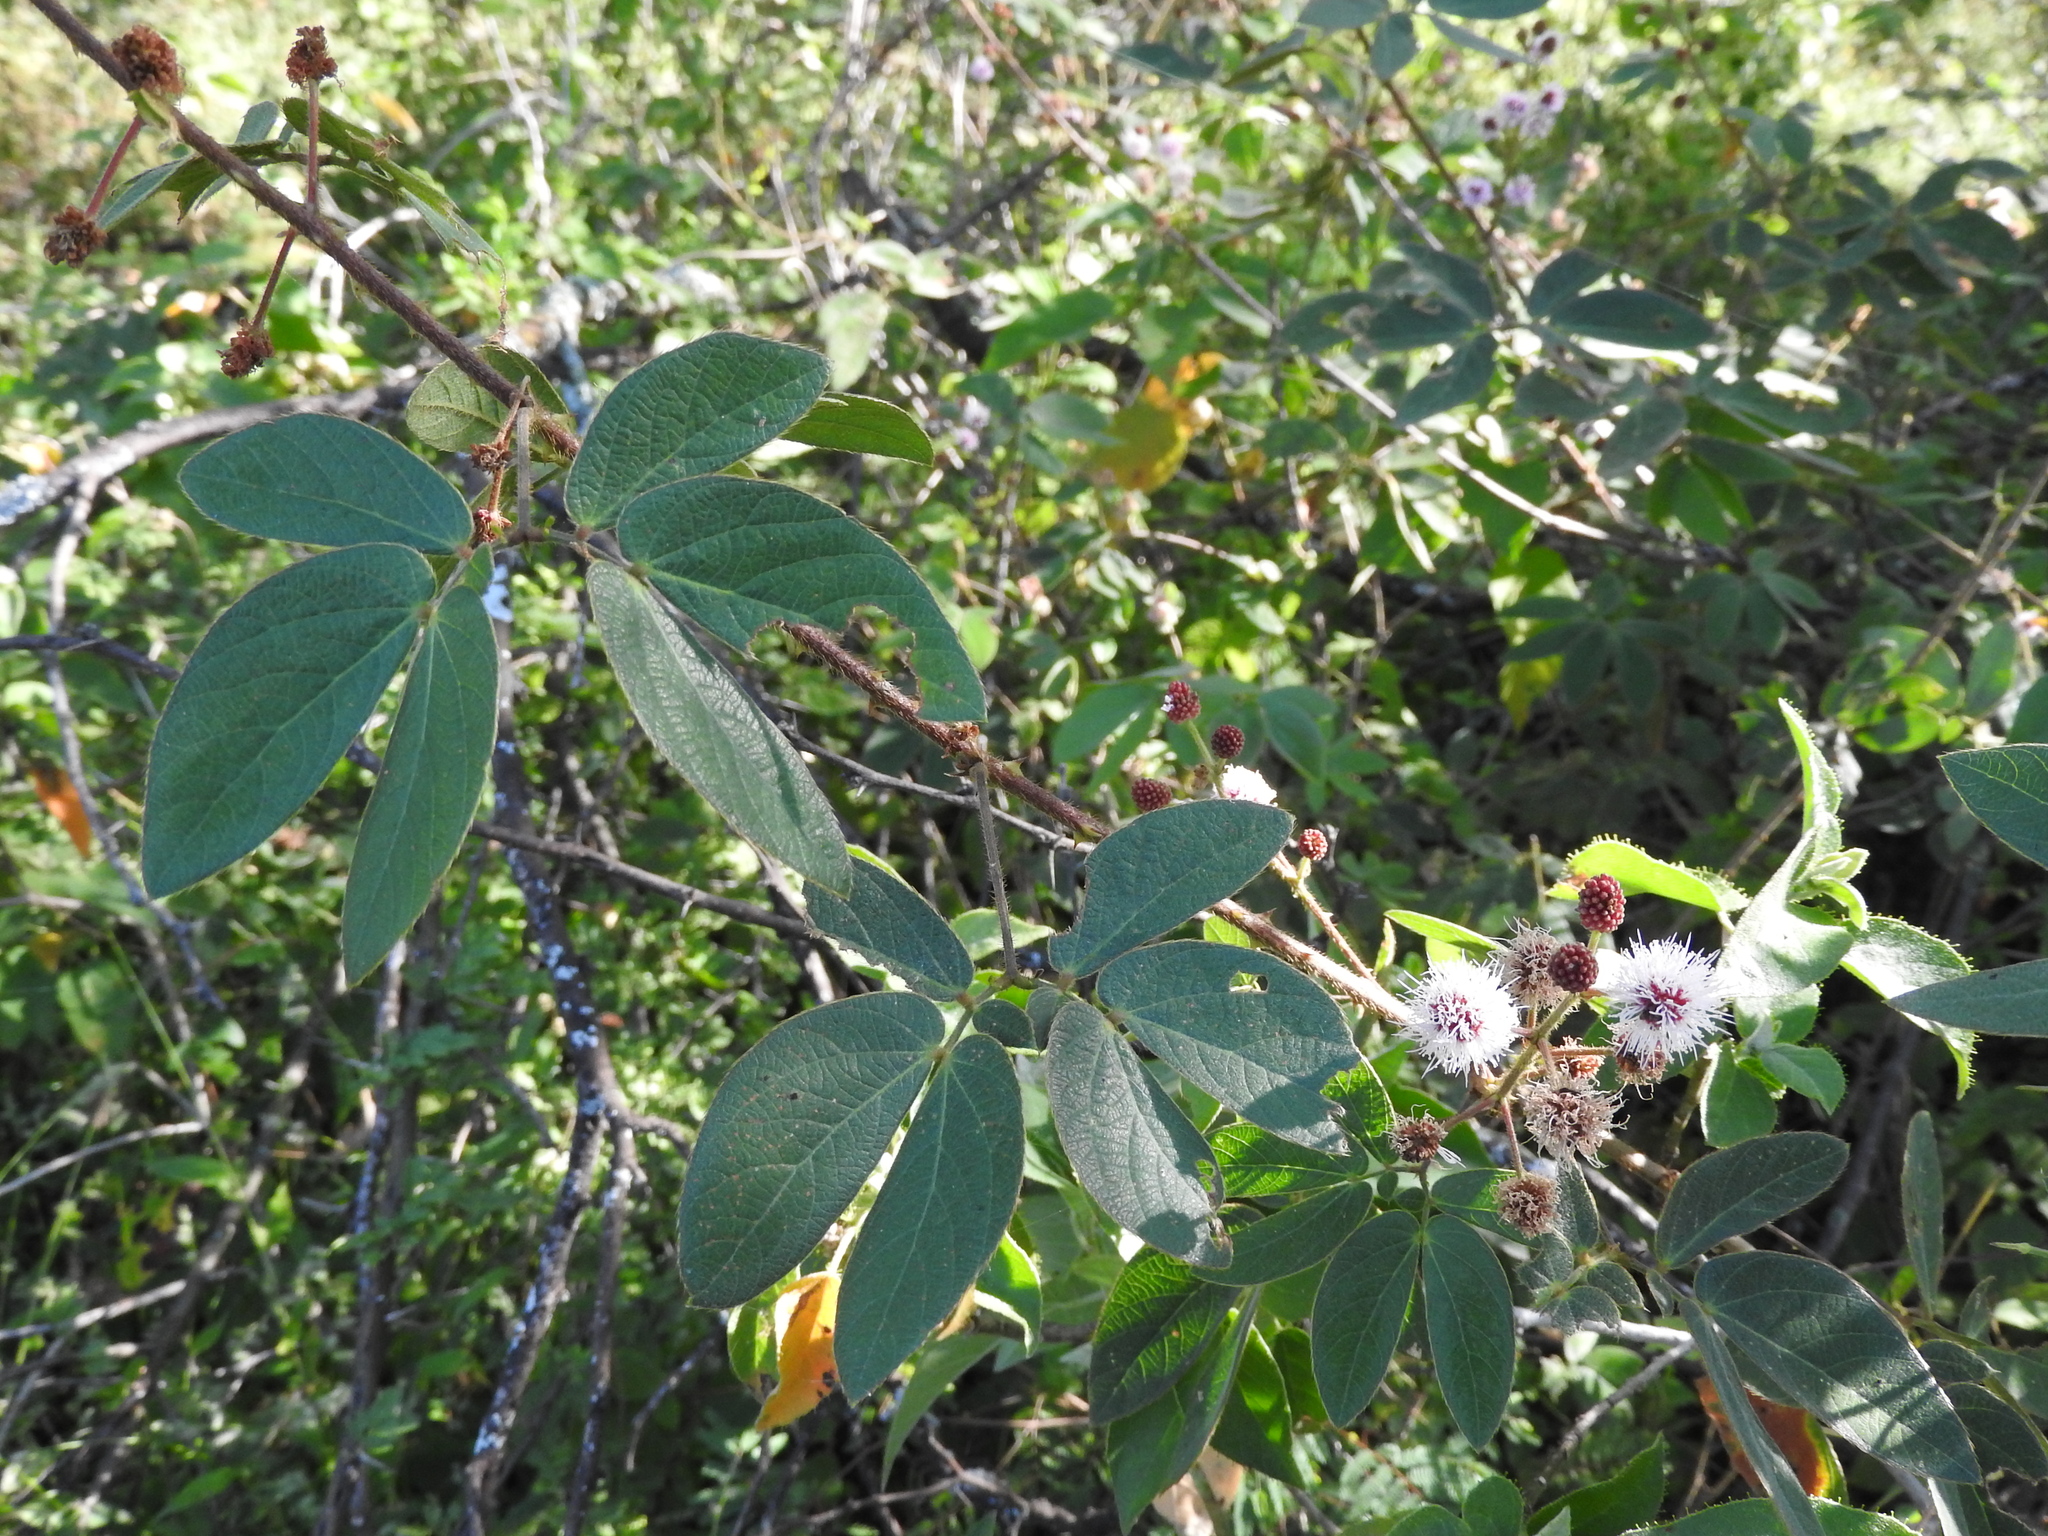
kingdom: Plantae
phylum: Tracheophyta
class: Magnoliopsida
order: Fabales
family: Fabaceae
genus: Mimosa
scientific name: Mimosa albida
